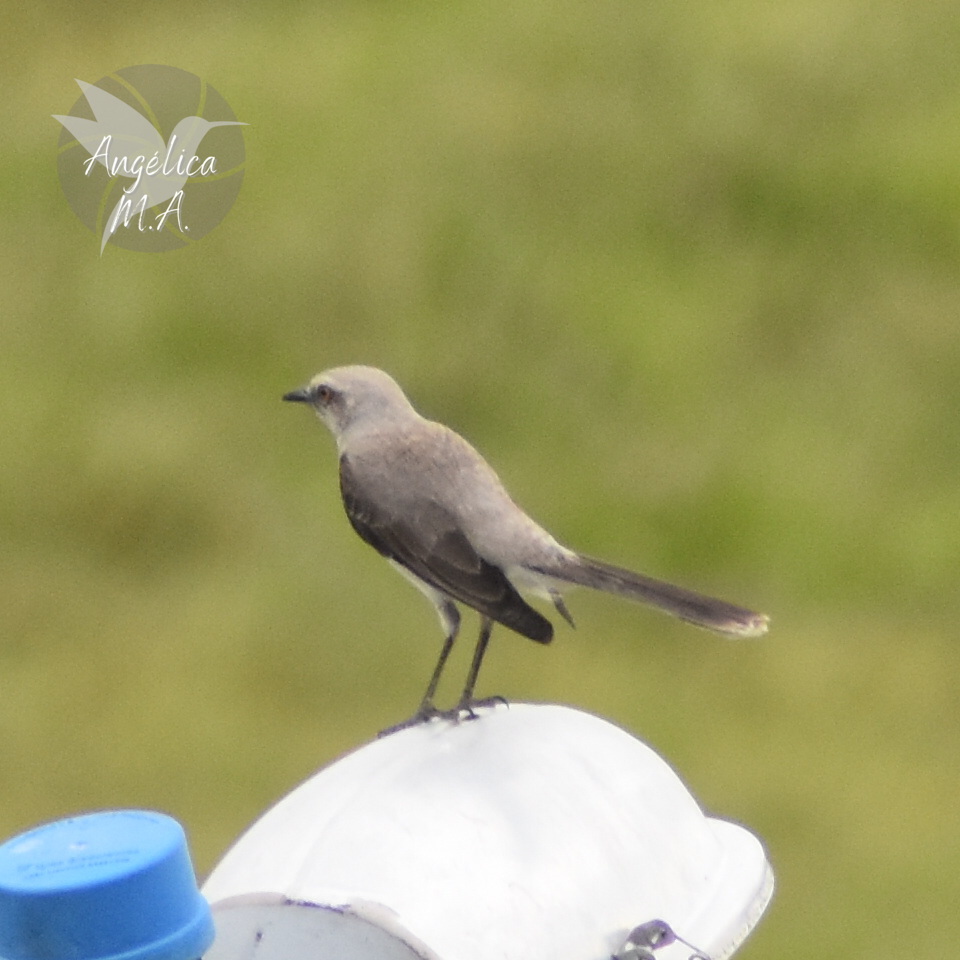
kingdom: Animalia
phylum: Chordata
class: Aves
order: Passeriformes
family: Mimidae
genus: Mimus
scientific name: Mimus gilvus
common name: Tropical mockingbird
